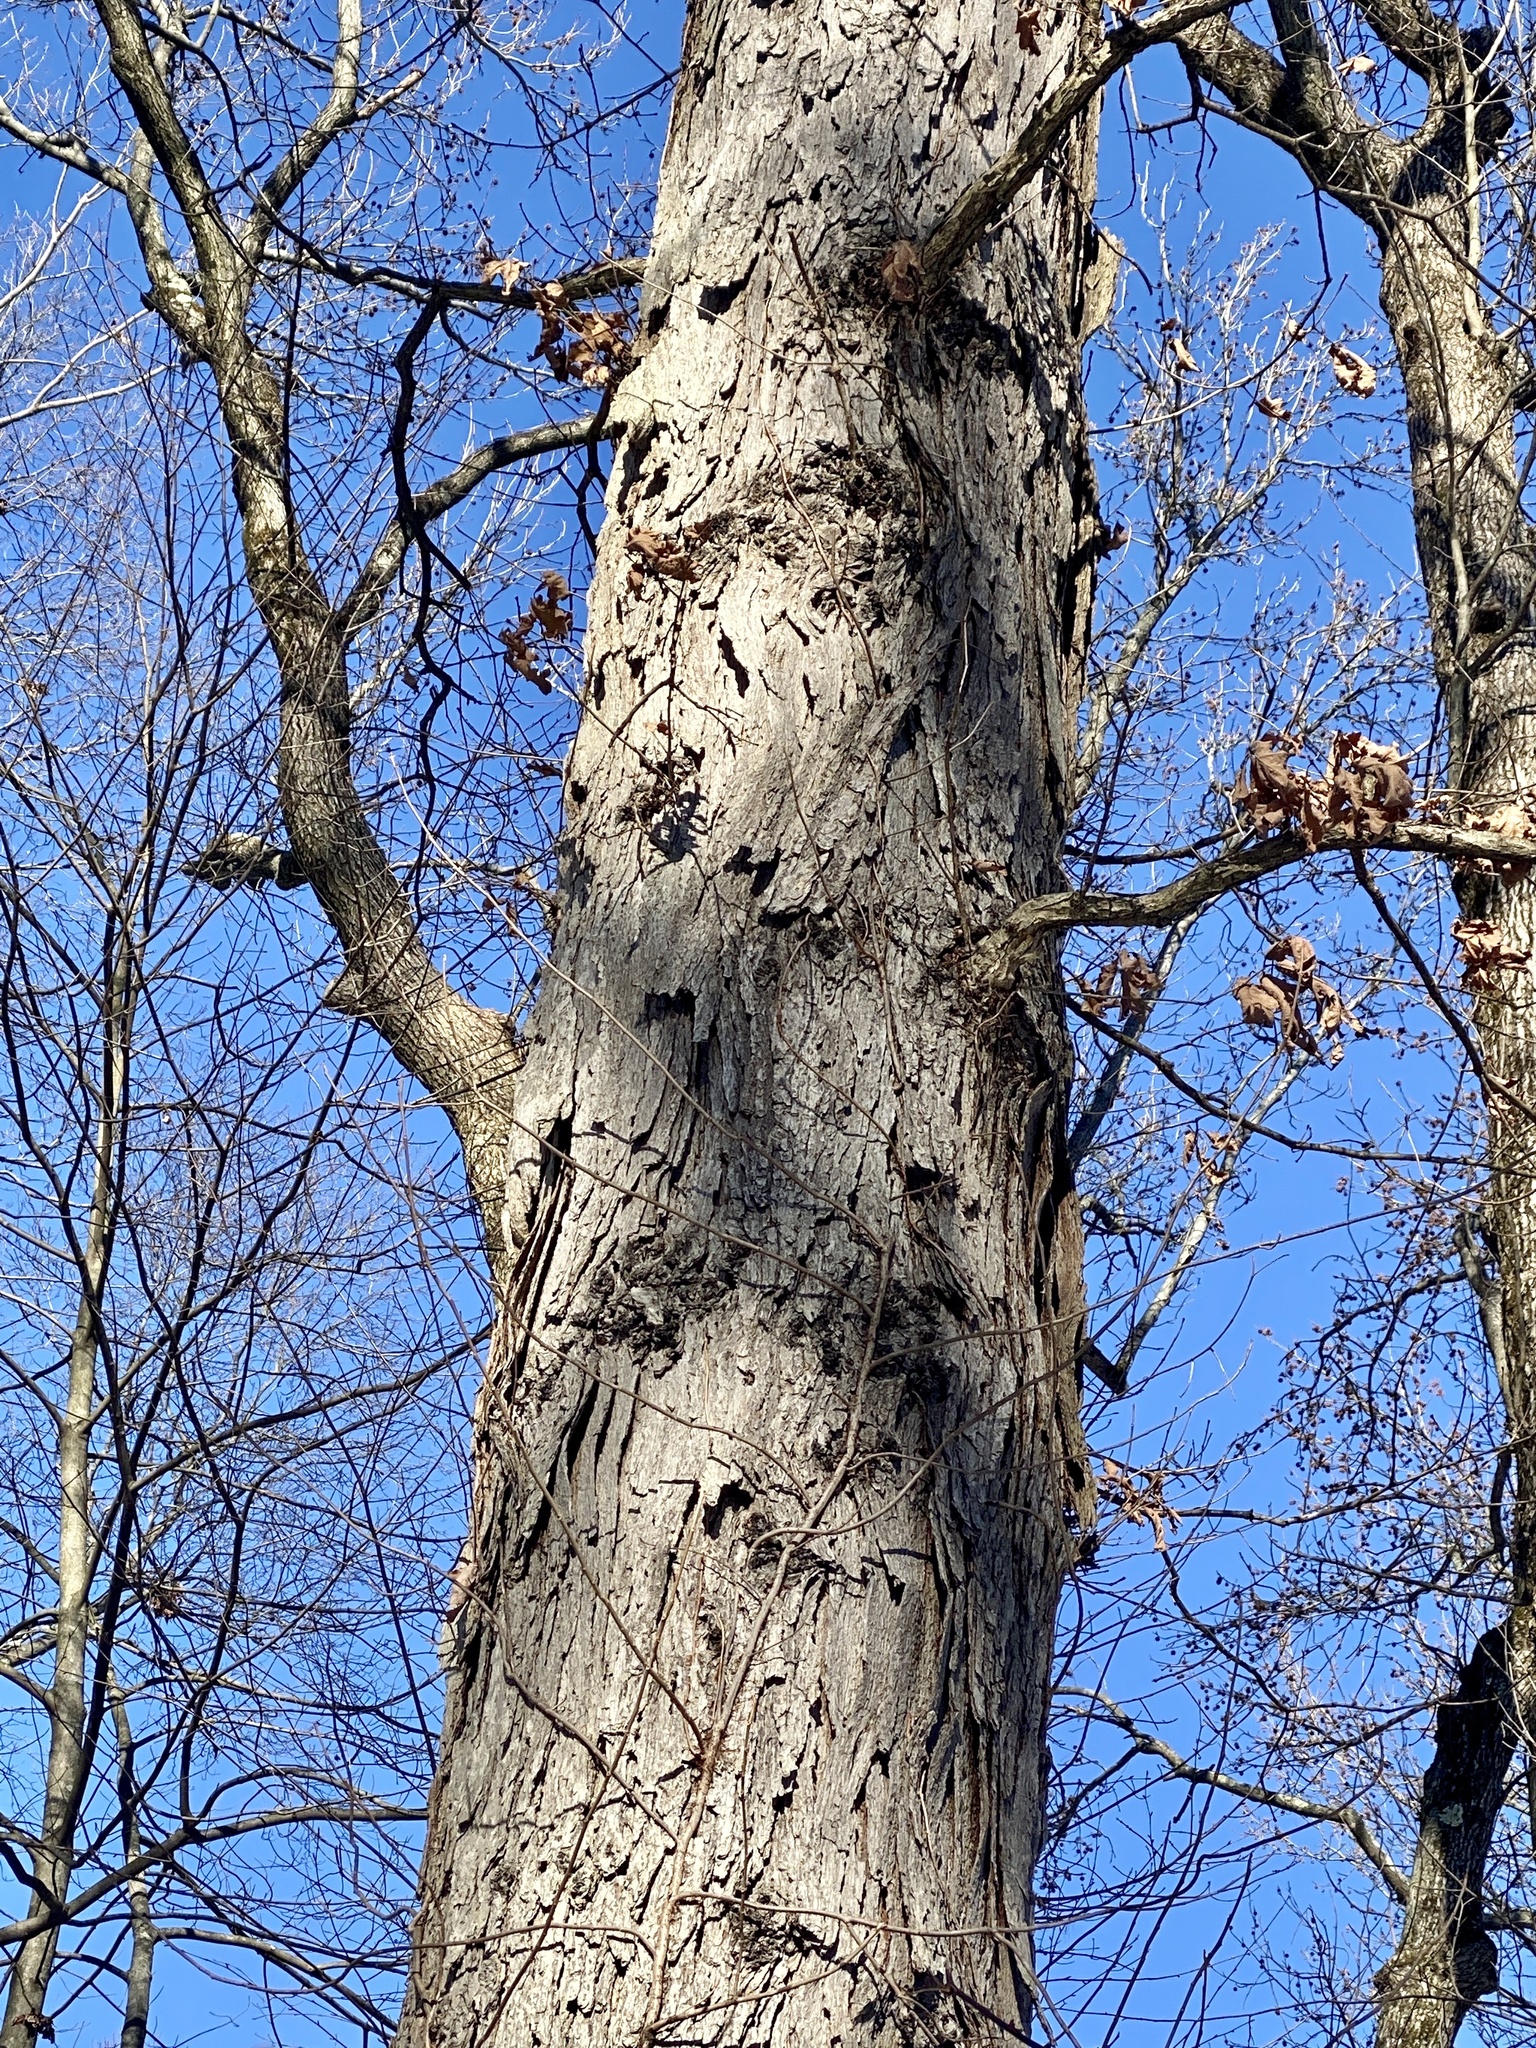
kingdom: Plantae
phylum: Tracheophyta
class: Magnoliopsida
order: Fagales
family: Fagaceae
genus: Quercus
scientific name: Quercus alba
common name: White oak
